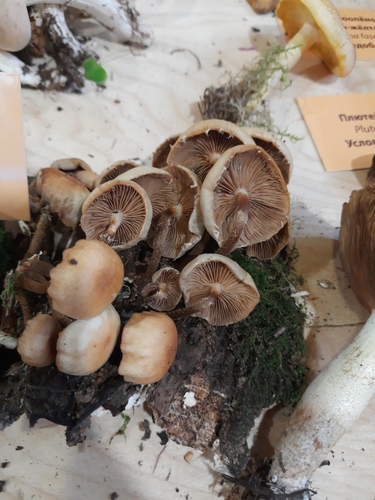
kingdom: Fungi
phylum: Basidiomycota
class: Agaricomycetes
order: Agaricales
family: Strophariaceae
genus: Kuehneromyces
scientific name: Kuehneromyces mutabilis
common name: Sheathed woodtuft
